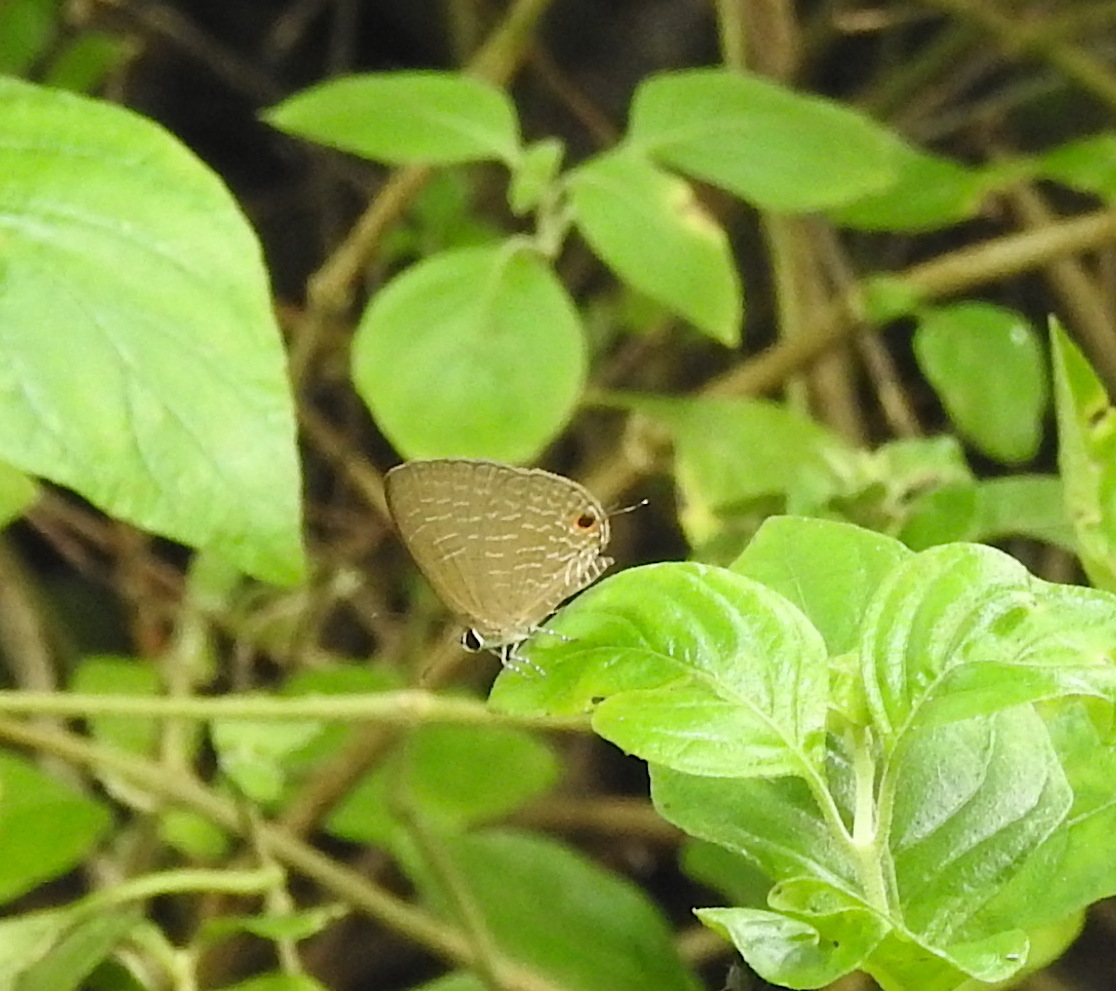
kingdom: Animalia
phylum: Arthropoda
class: Insecta
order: Lepidoptera
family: Lycaenidae
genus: Jamides
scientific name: Jamides bochus
